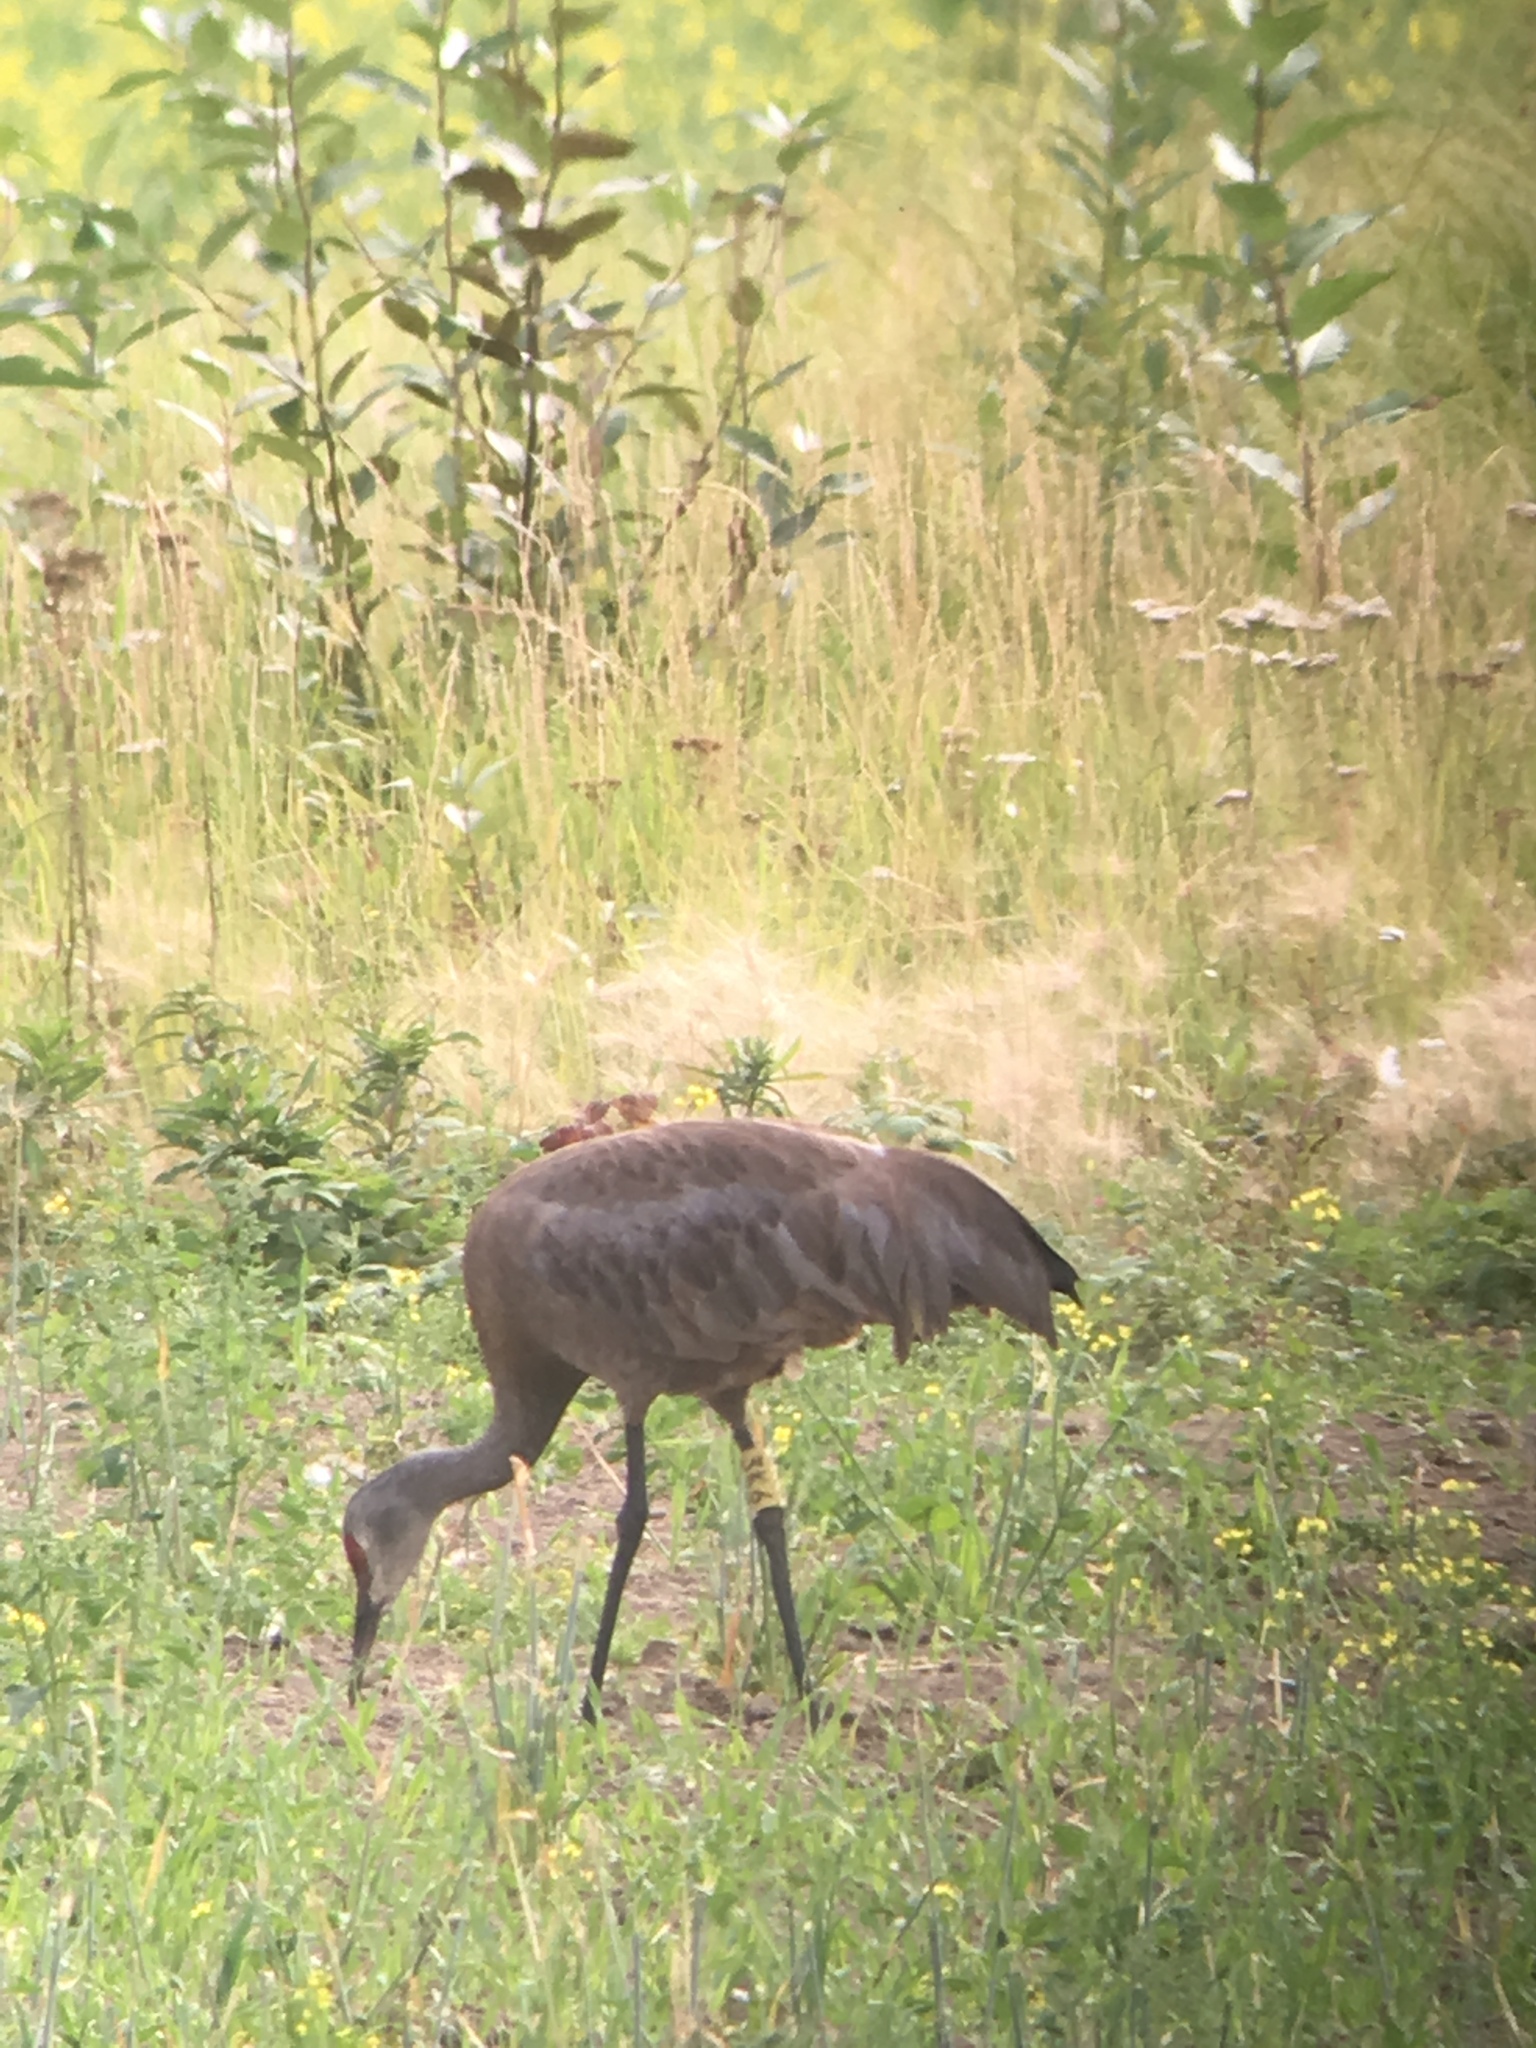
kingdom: Animalia
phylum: Chordata
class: Aves
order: Gruiformes
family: Gruidae
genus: Grus
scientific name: Grus canadensis
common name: Sandhill crane
